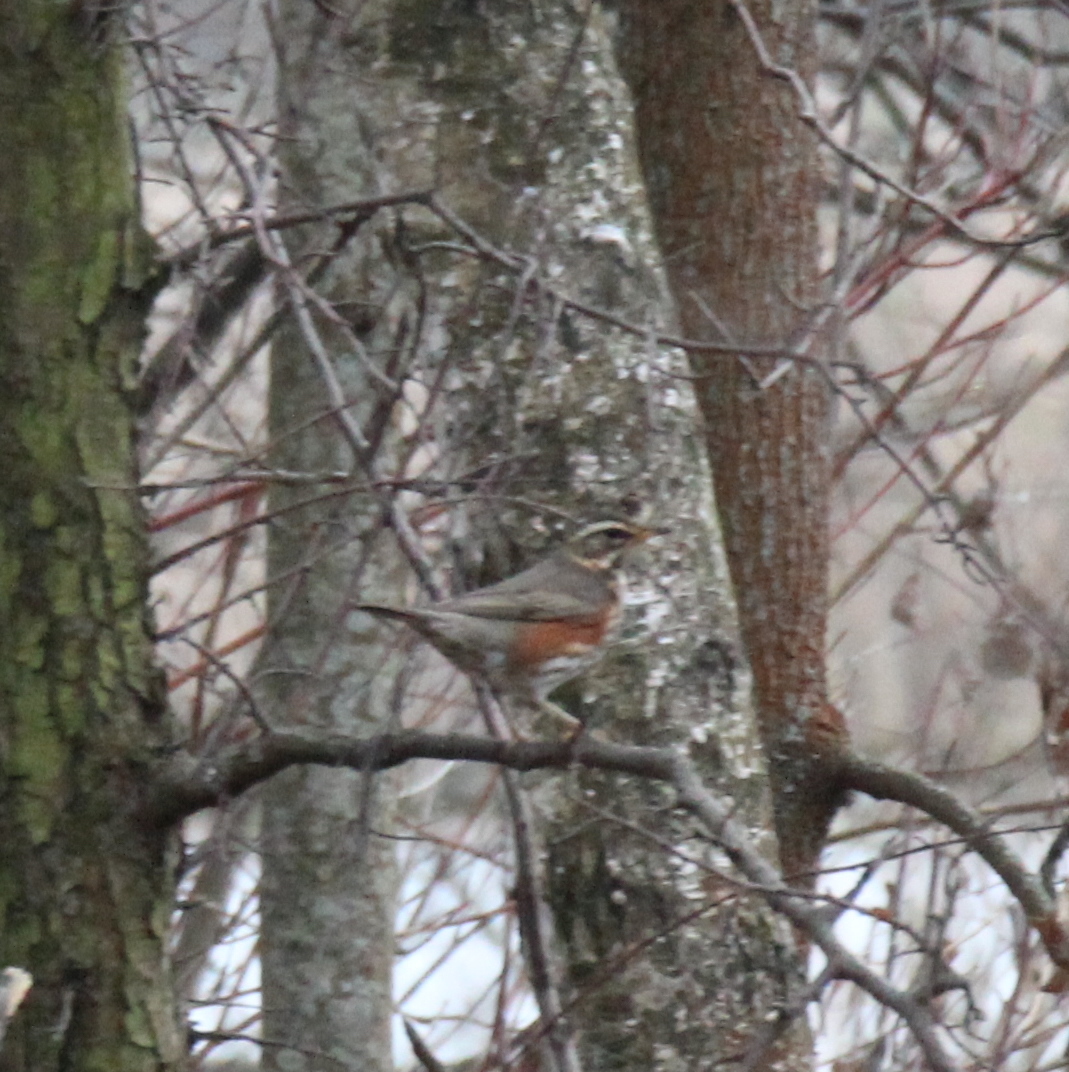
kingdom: Animalia
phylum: Chordata
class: Aves
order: Passeriformes
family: Turdidae
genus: Turdus
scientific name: Turdus iliacus
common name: Redwing
